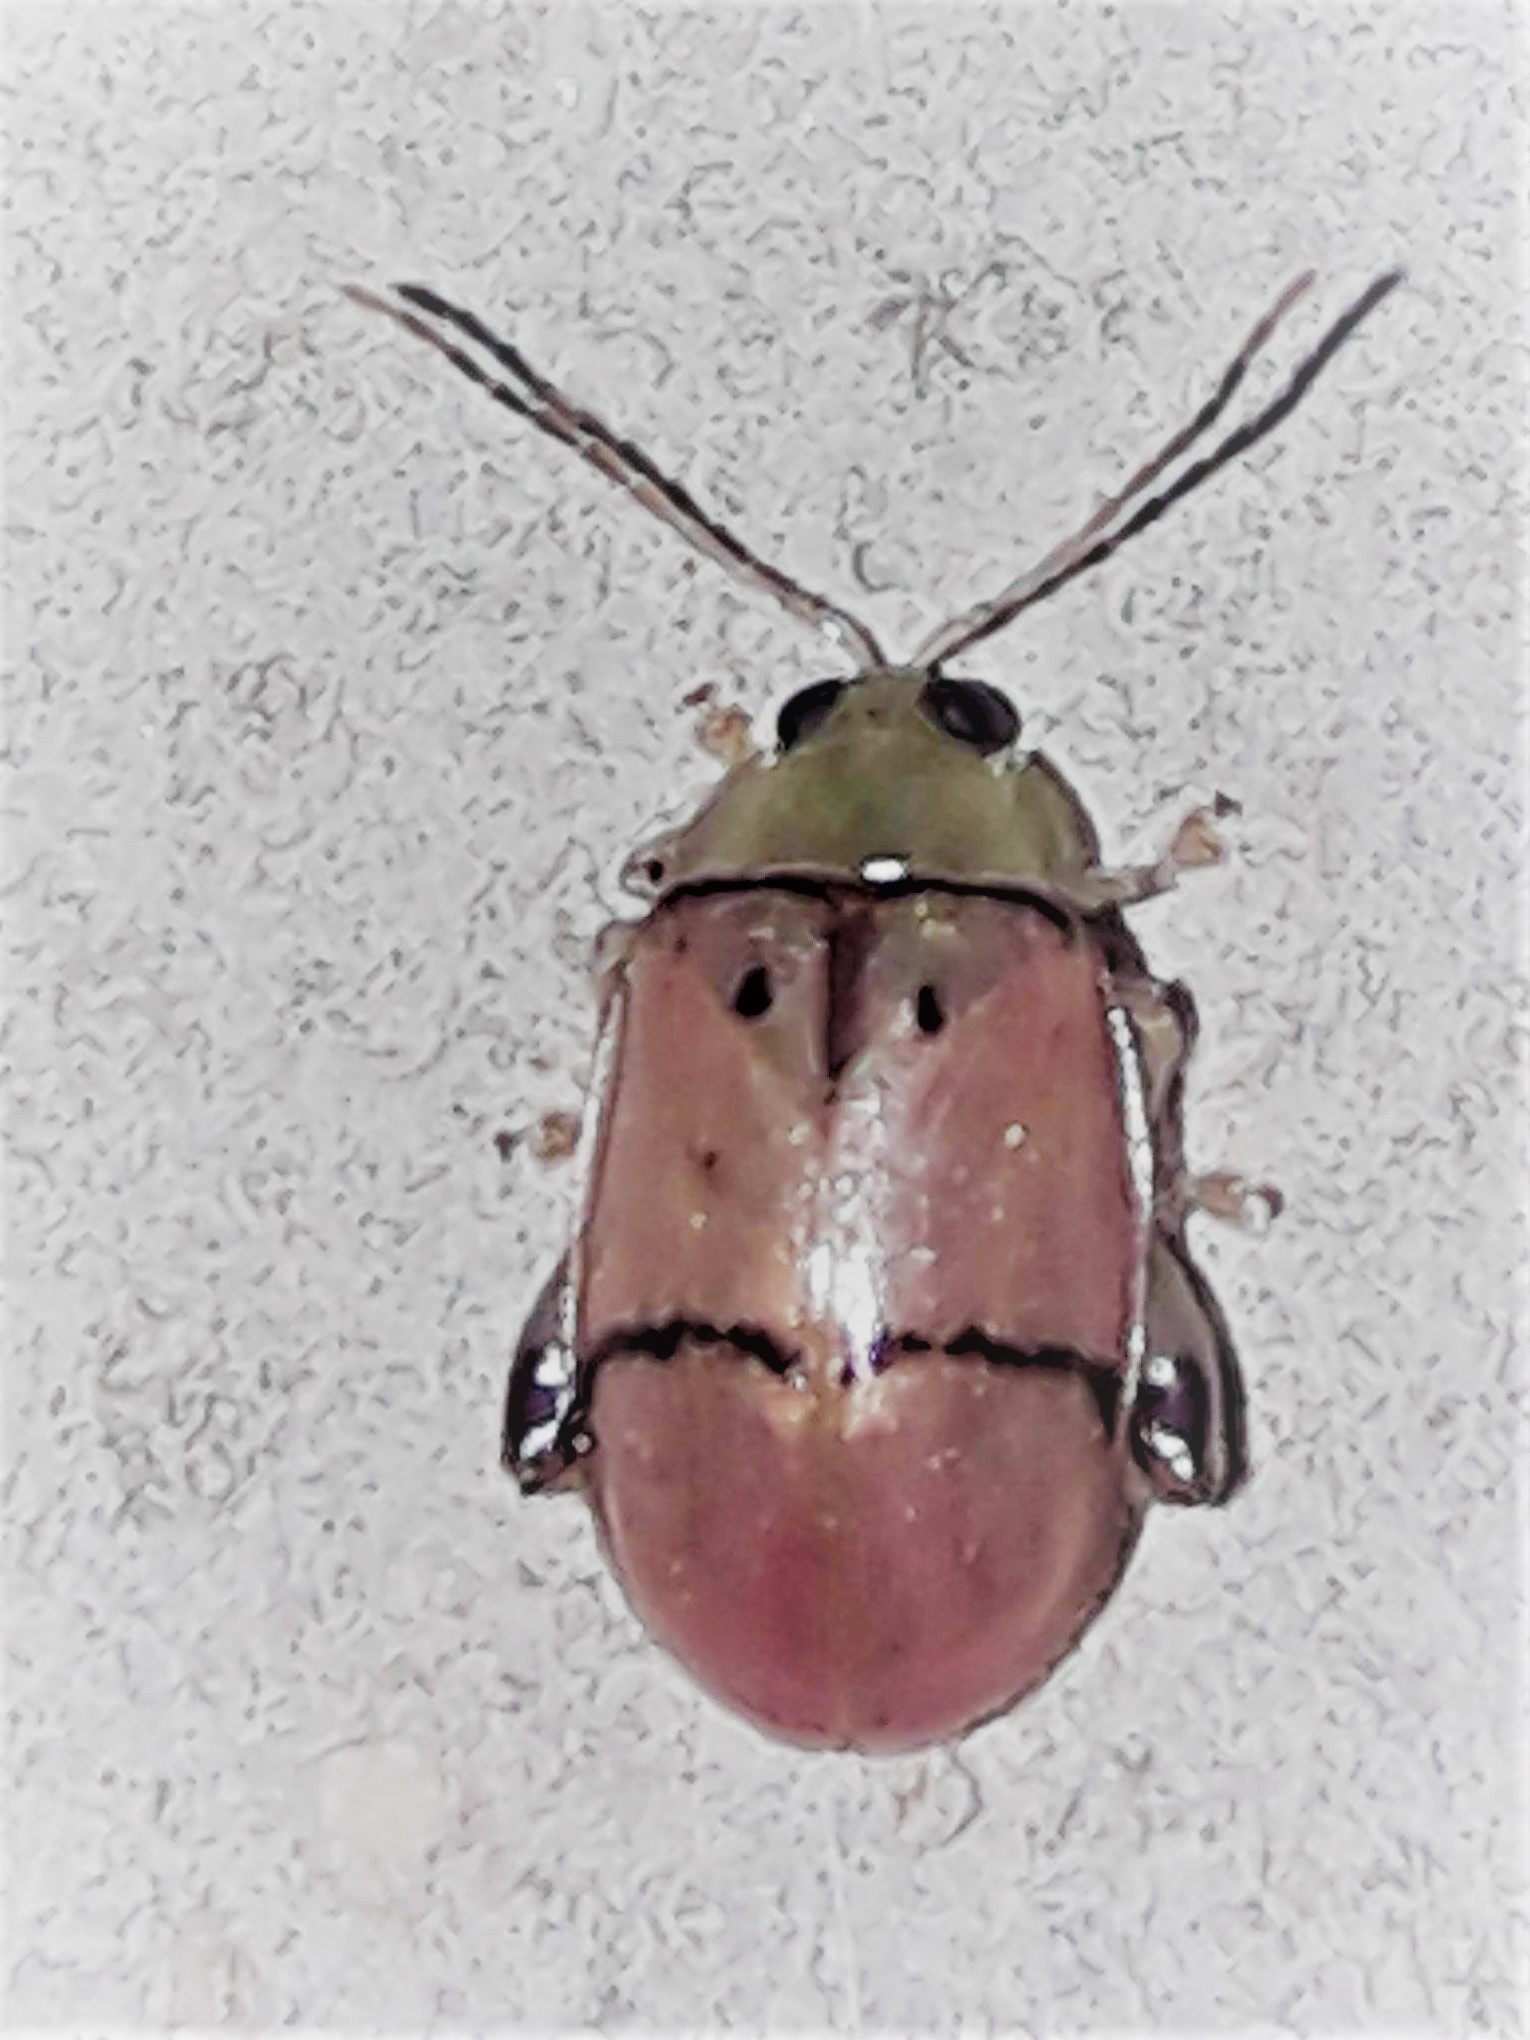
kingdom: Animalia
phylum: Arthropoda
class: Insecta
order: Coleoptera
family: Chrysomelidae
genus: Walterianella
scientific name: Walterianella
